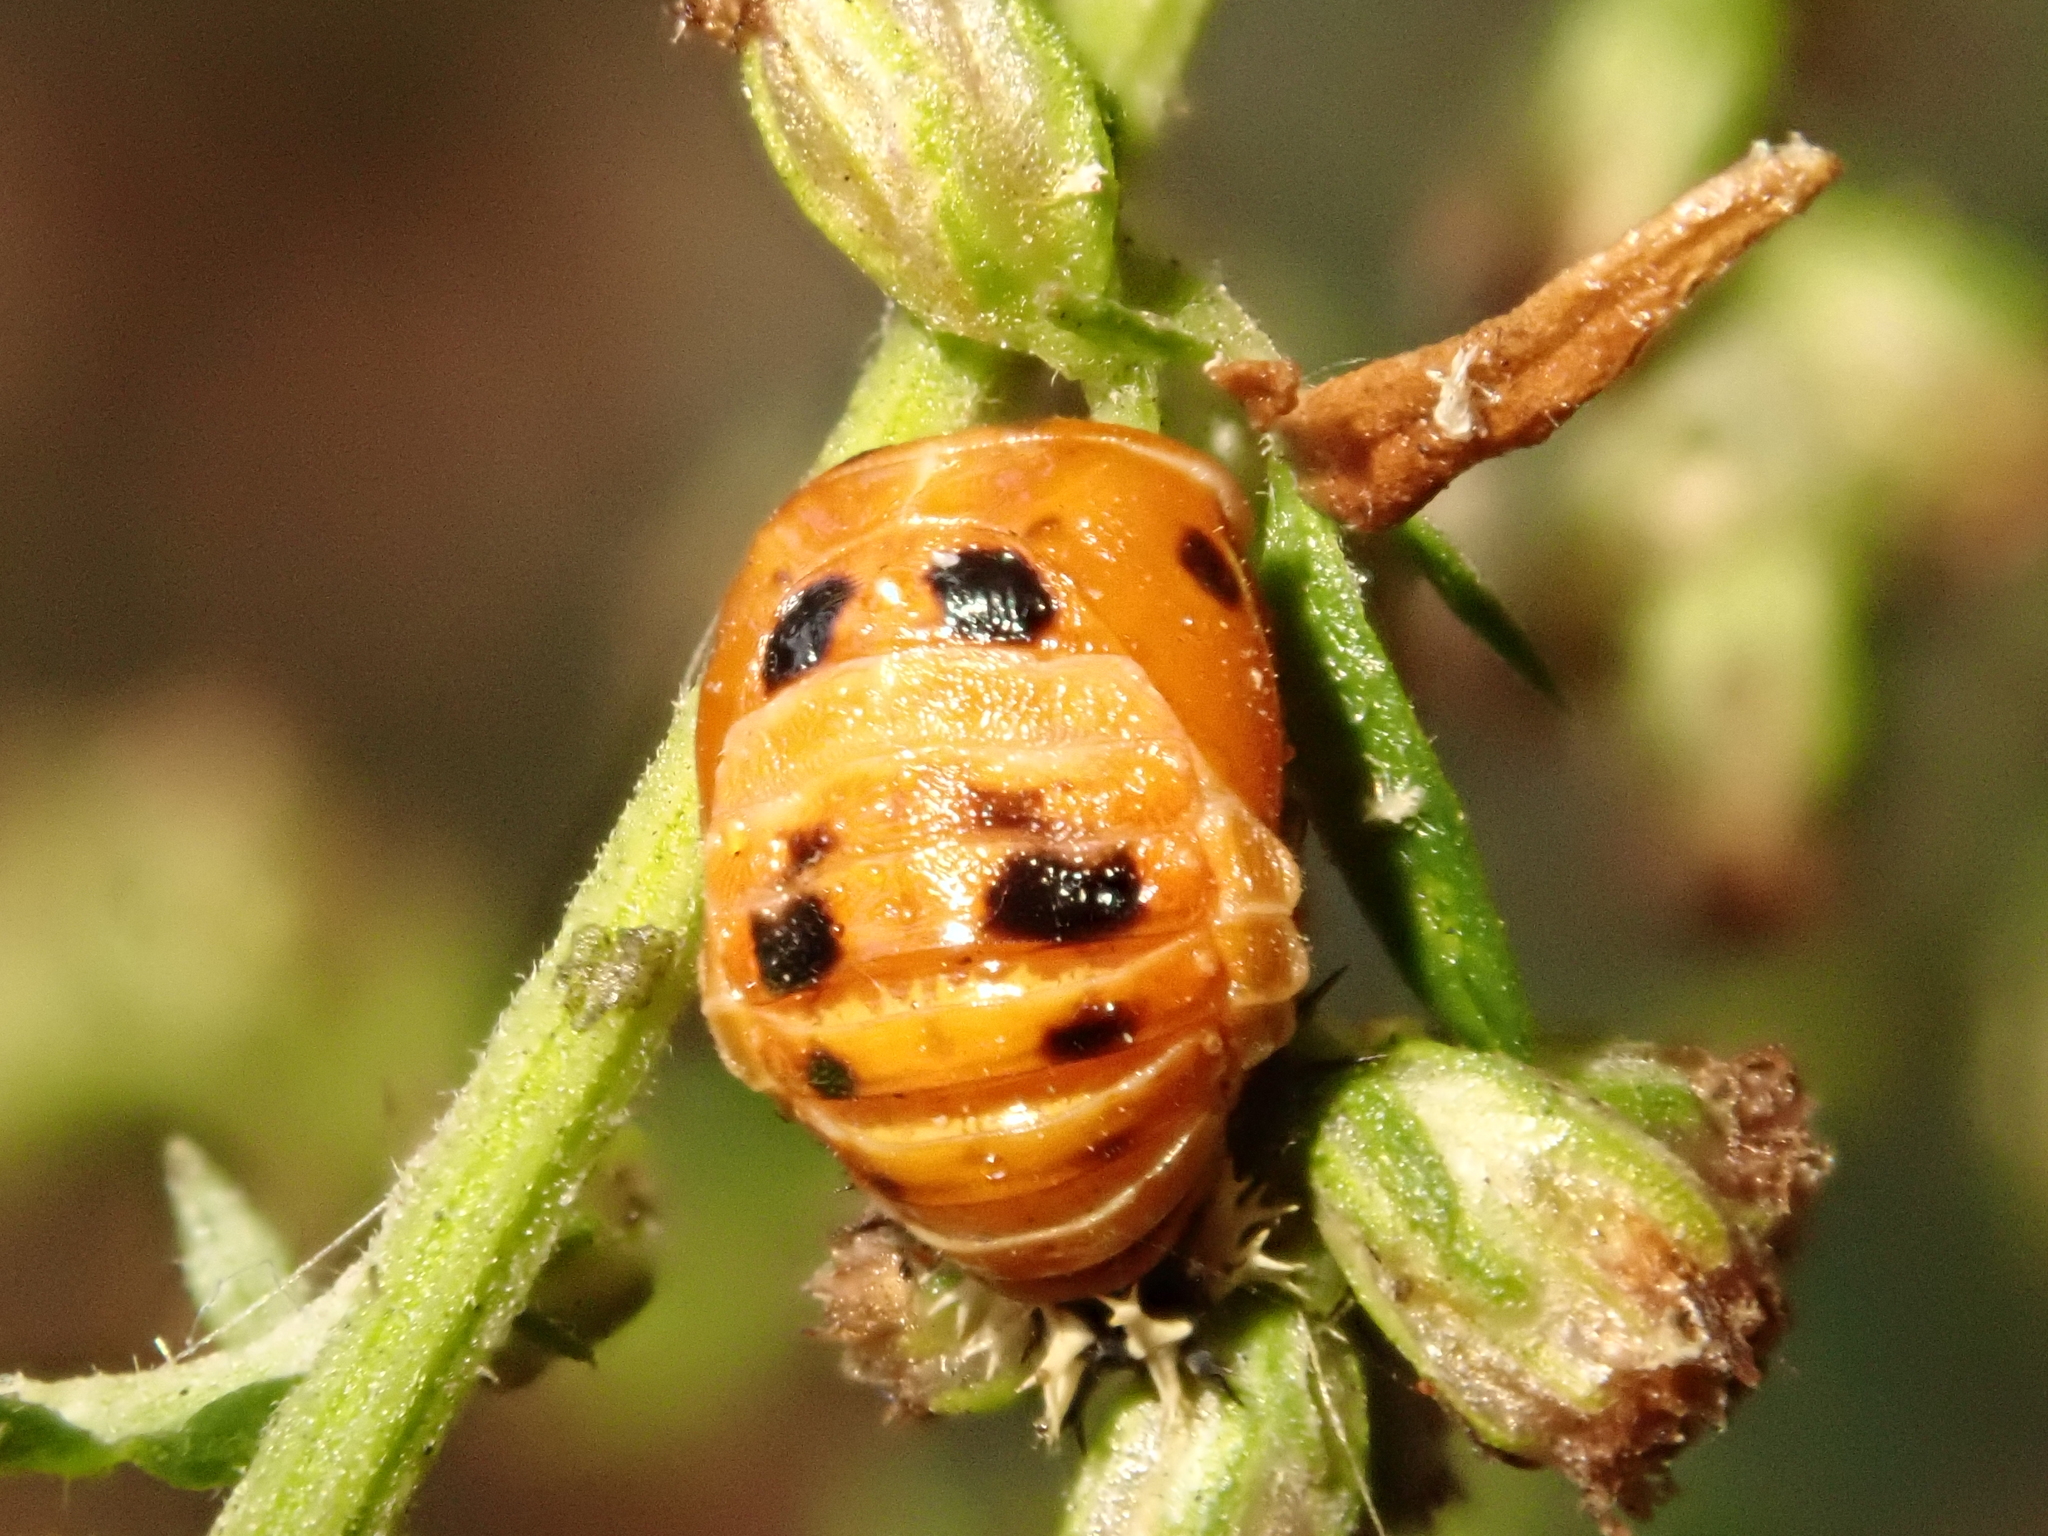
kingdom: Animalia
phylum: Arthropoda
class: Insecta
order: Coleoptera
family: Coccinellidae
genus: Harmonia
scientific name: Harmonia axyridis
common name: Harlequin ladybird
